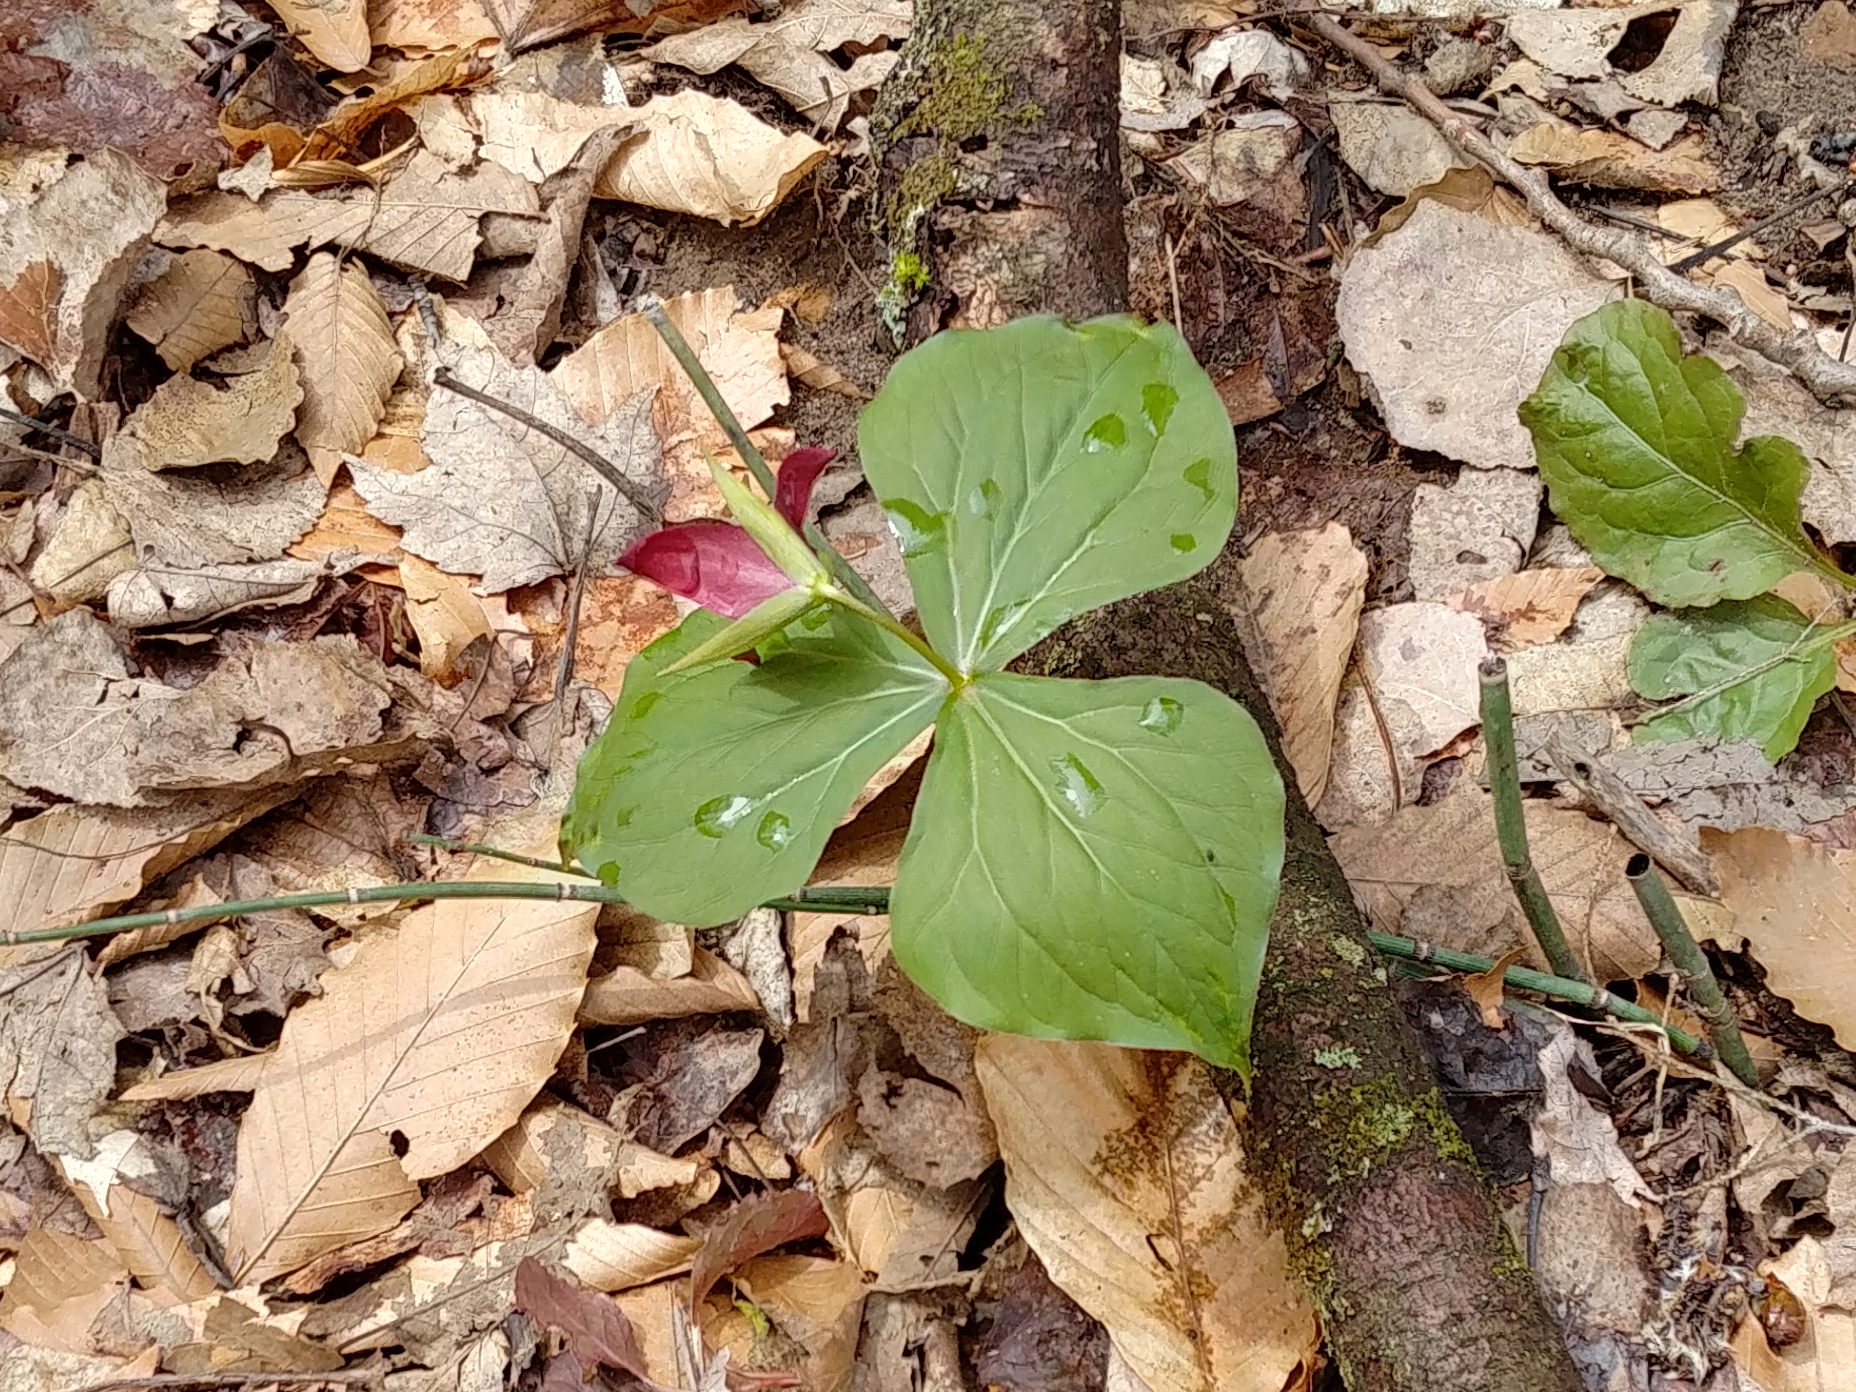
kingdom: Plantae
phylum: Tracheophyta
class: Liliopsida
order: Liliales
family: Melanthiaceae
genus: Trillium
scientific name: Trillium erectum
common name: Purple trillium
